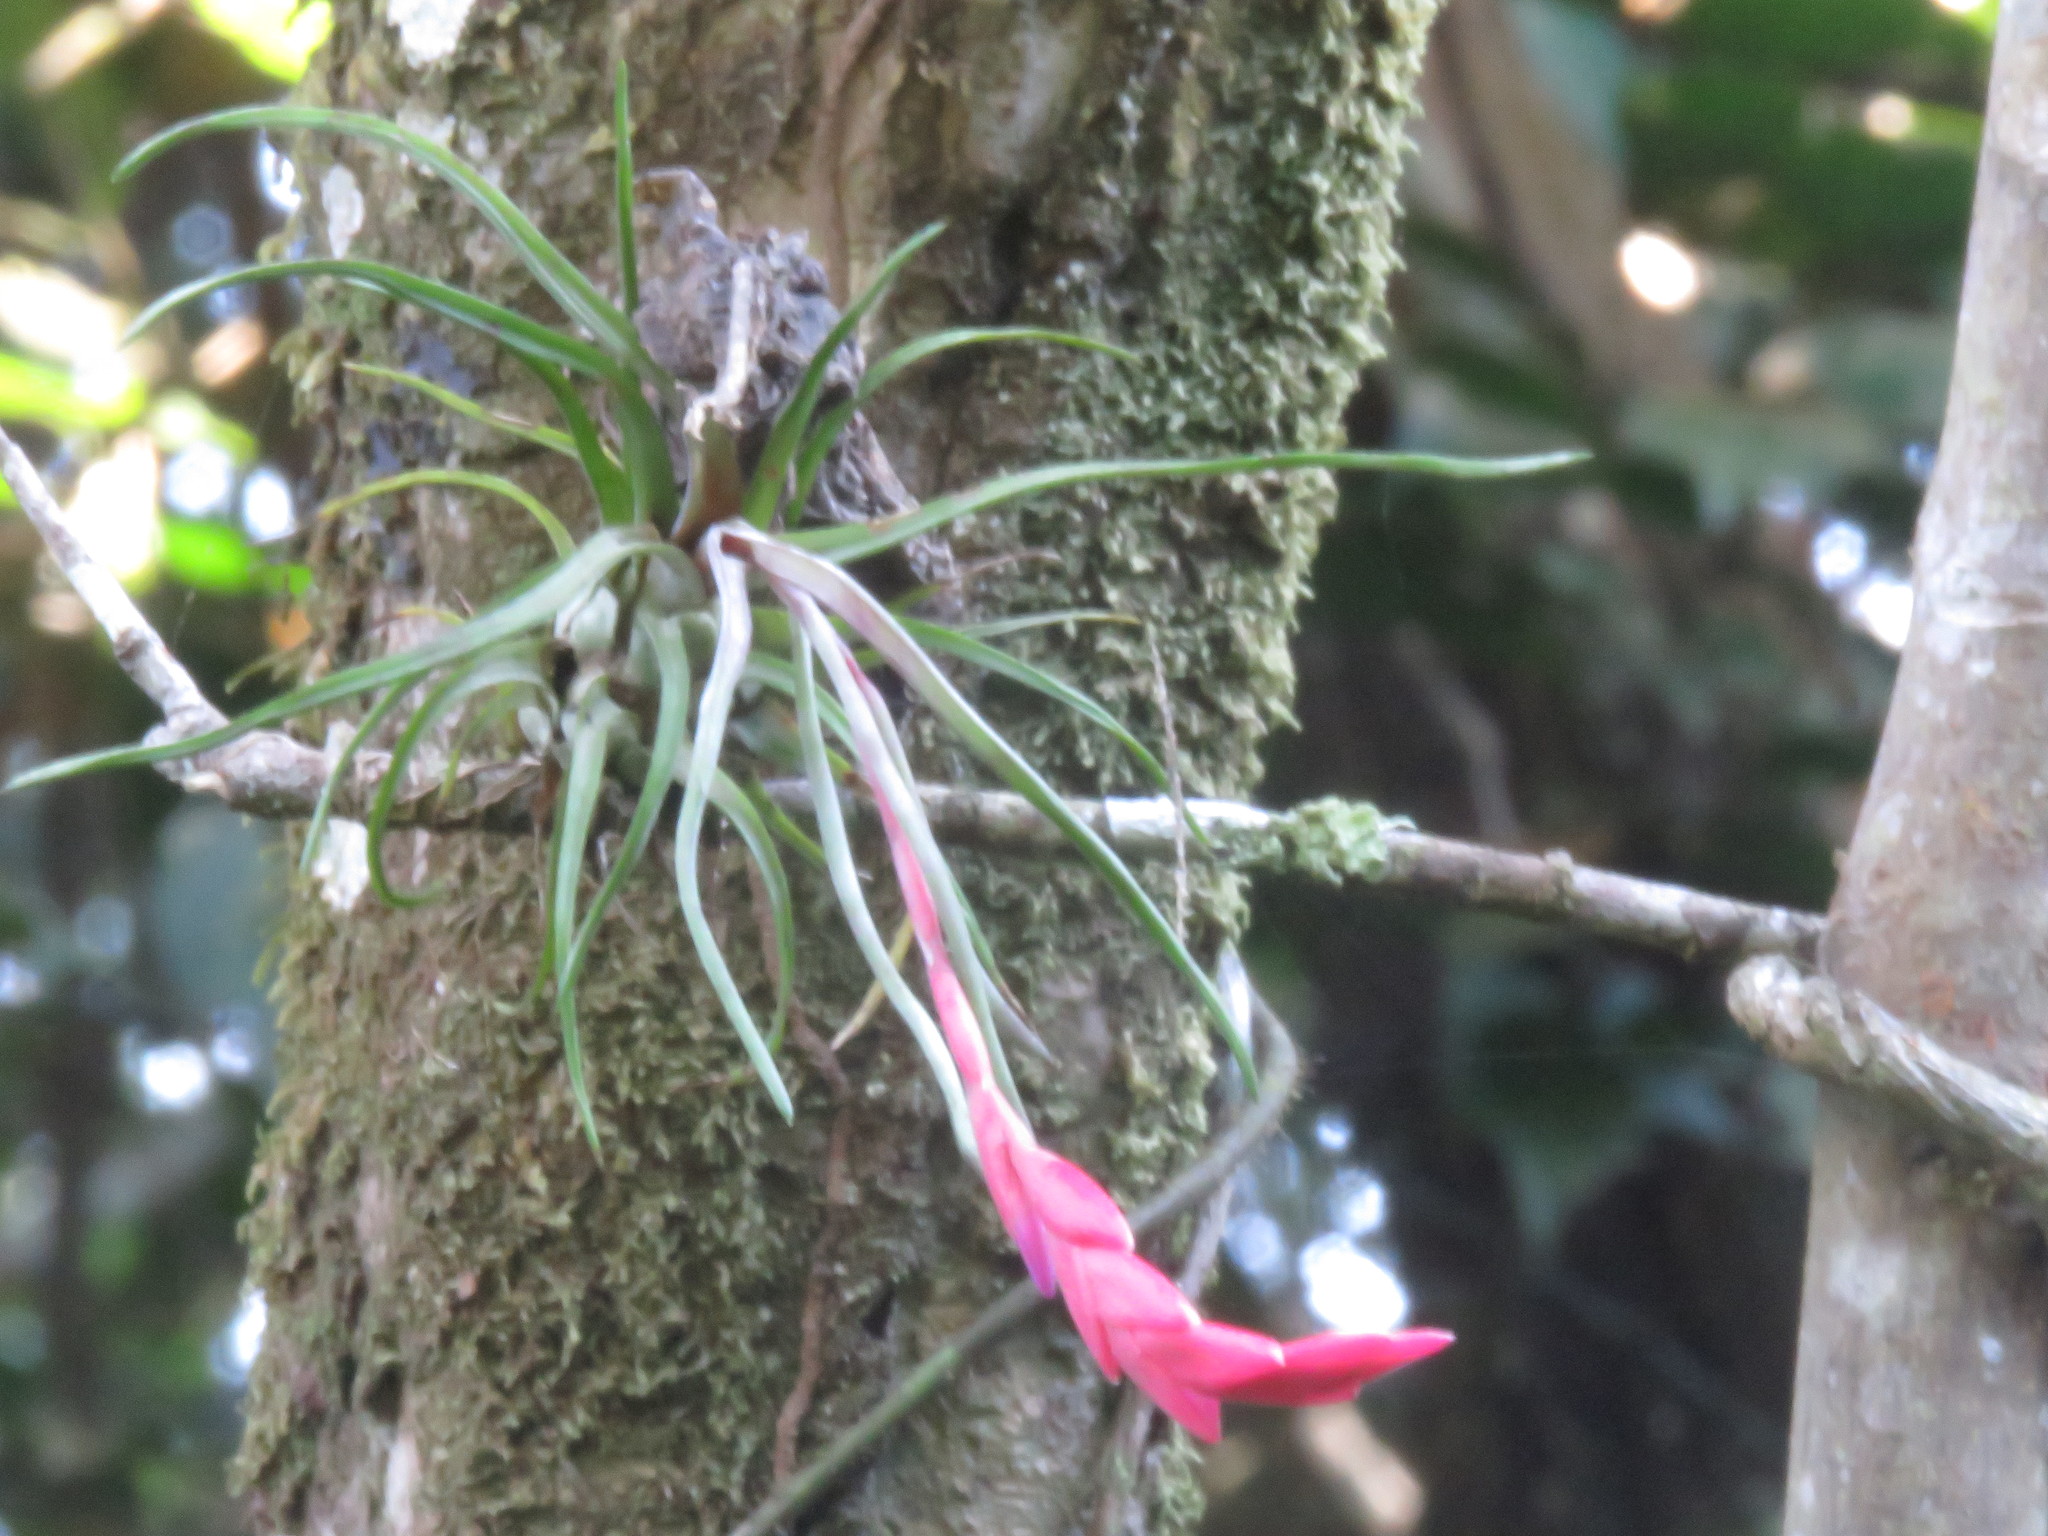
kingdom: Plantae
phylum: Tracheophyta
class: Liliopsida
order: Poales
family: Bromeliaceae
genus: Tillandsia
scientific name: Tillandsia paraensis
